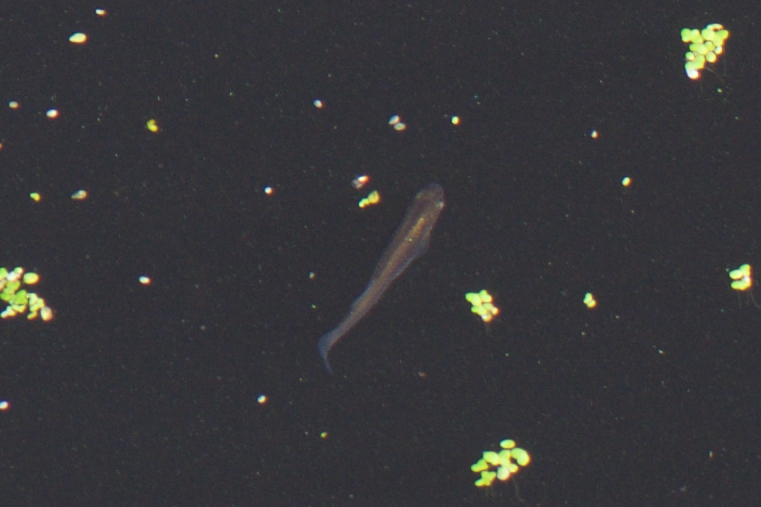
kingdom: Animalia
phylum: Chordata
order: Cyprinodontiformes
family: Poeciliidae
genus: Gambusia
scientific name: Gambusia affinis
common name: Mosquitofish
